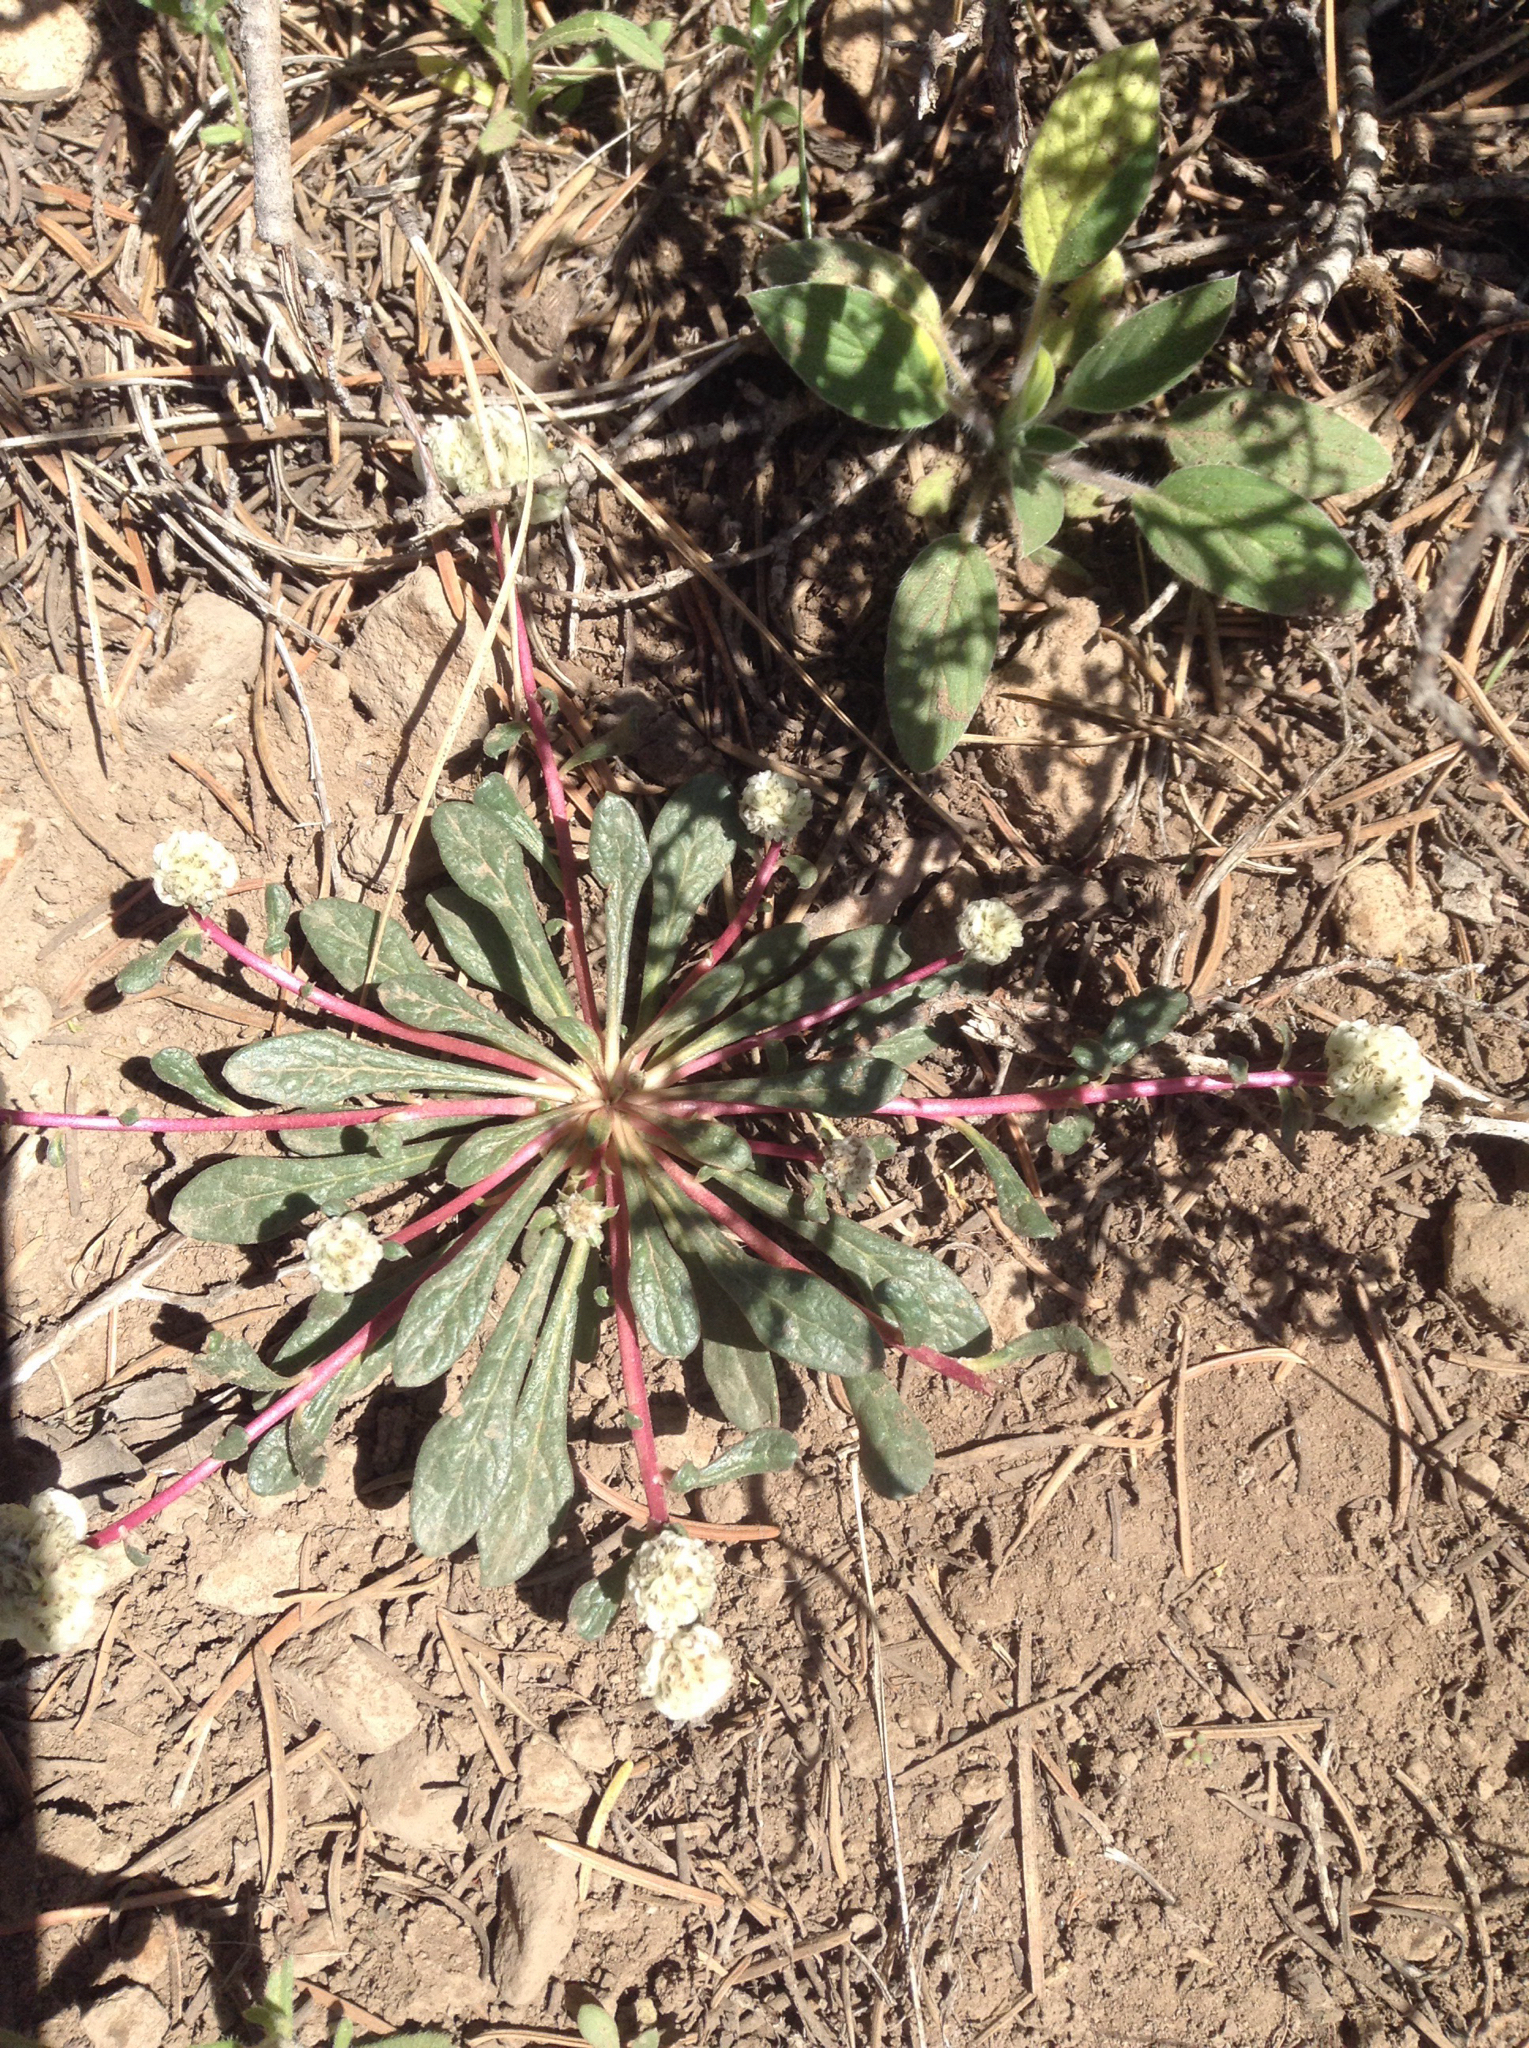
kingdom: Plantae
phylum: Tracheophyta
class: Magnoliopsida
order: Caryophyllales
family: Montiaceae
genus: Calyptridium
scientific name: Calyptridium monospermum
